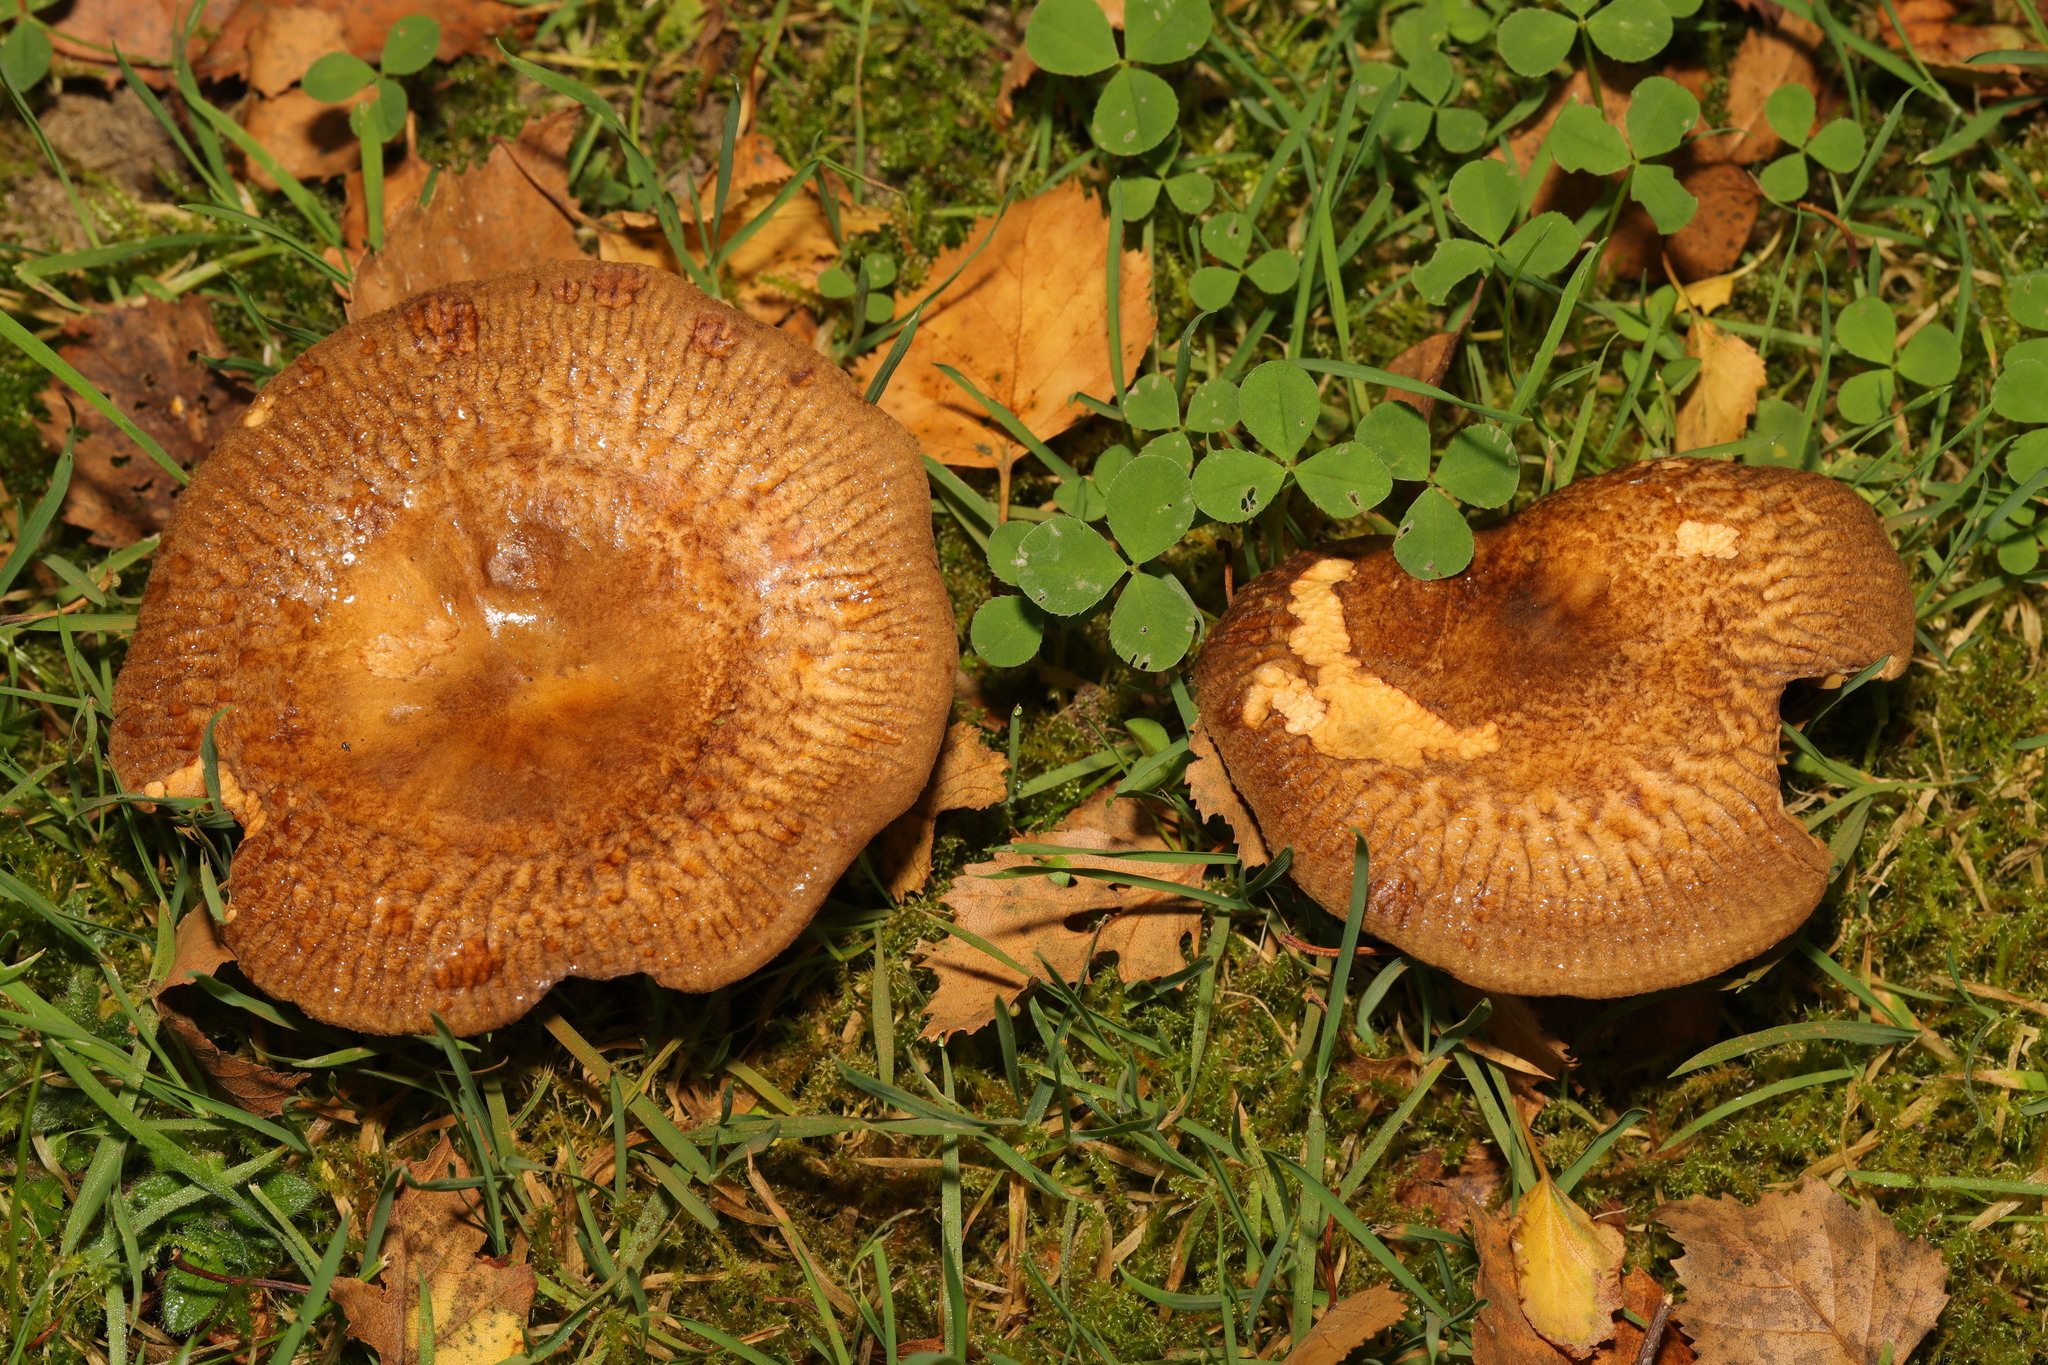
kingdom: Fungi
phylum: Basidiomycota
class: Agaricomycetes
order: Boletales
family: Paxillaceae
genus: Paxillus
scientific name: Paxillus involutus
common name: Brown roll rim
